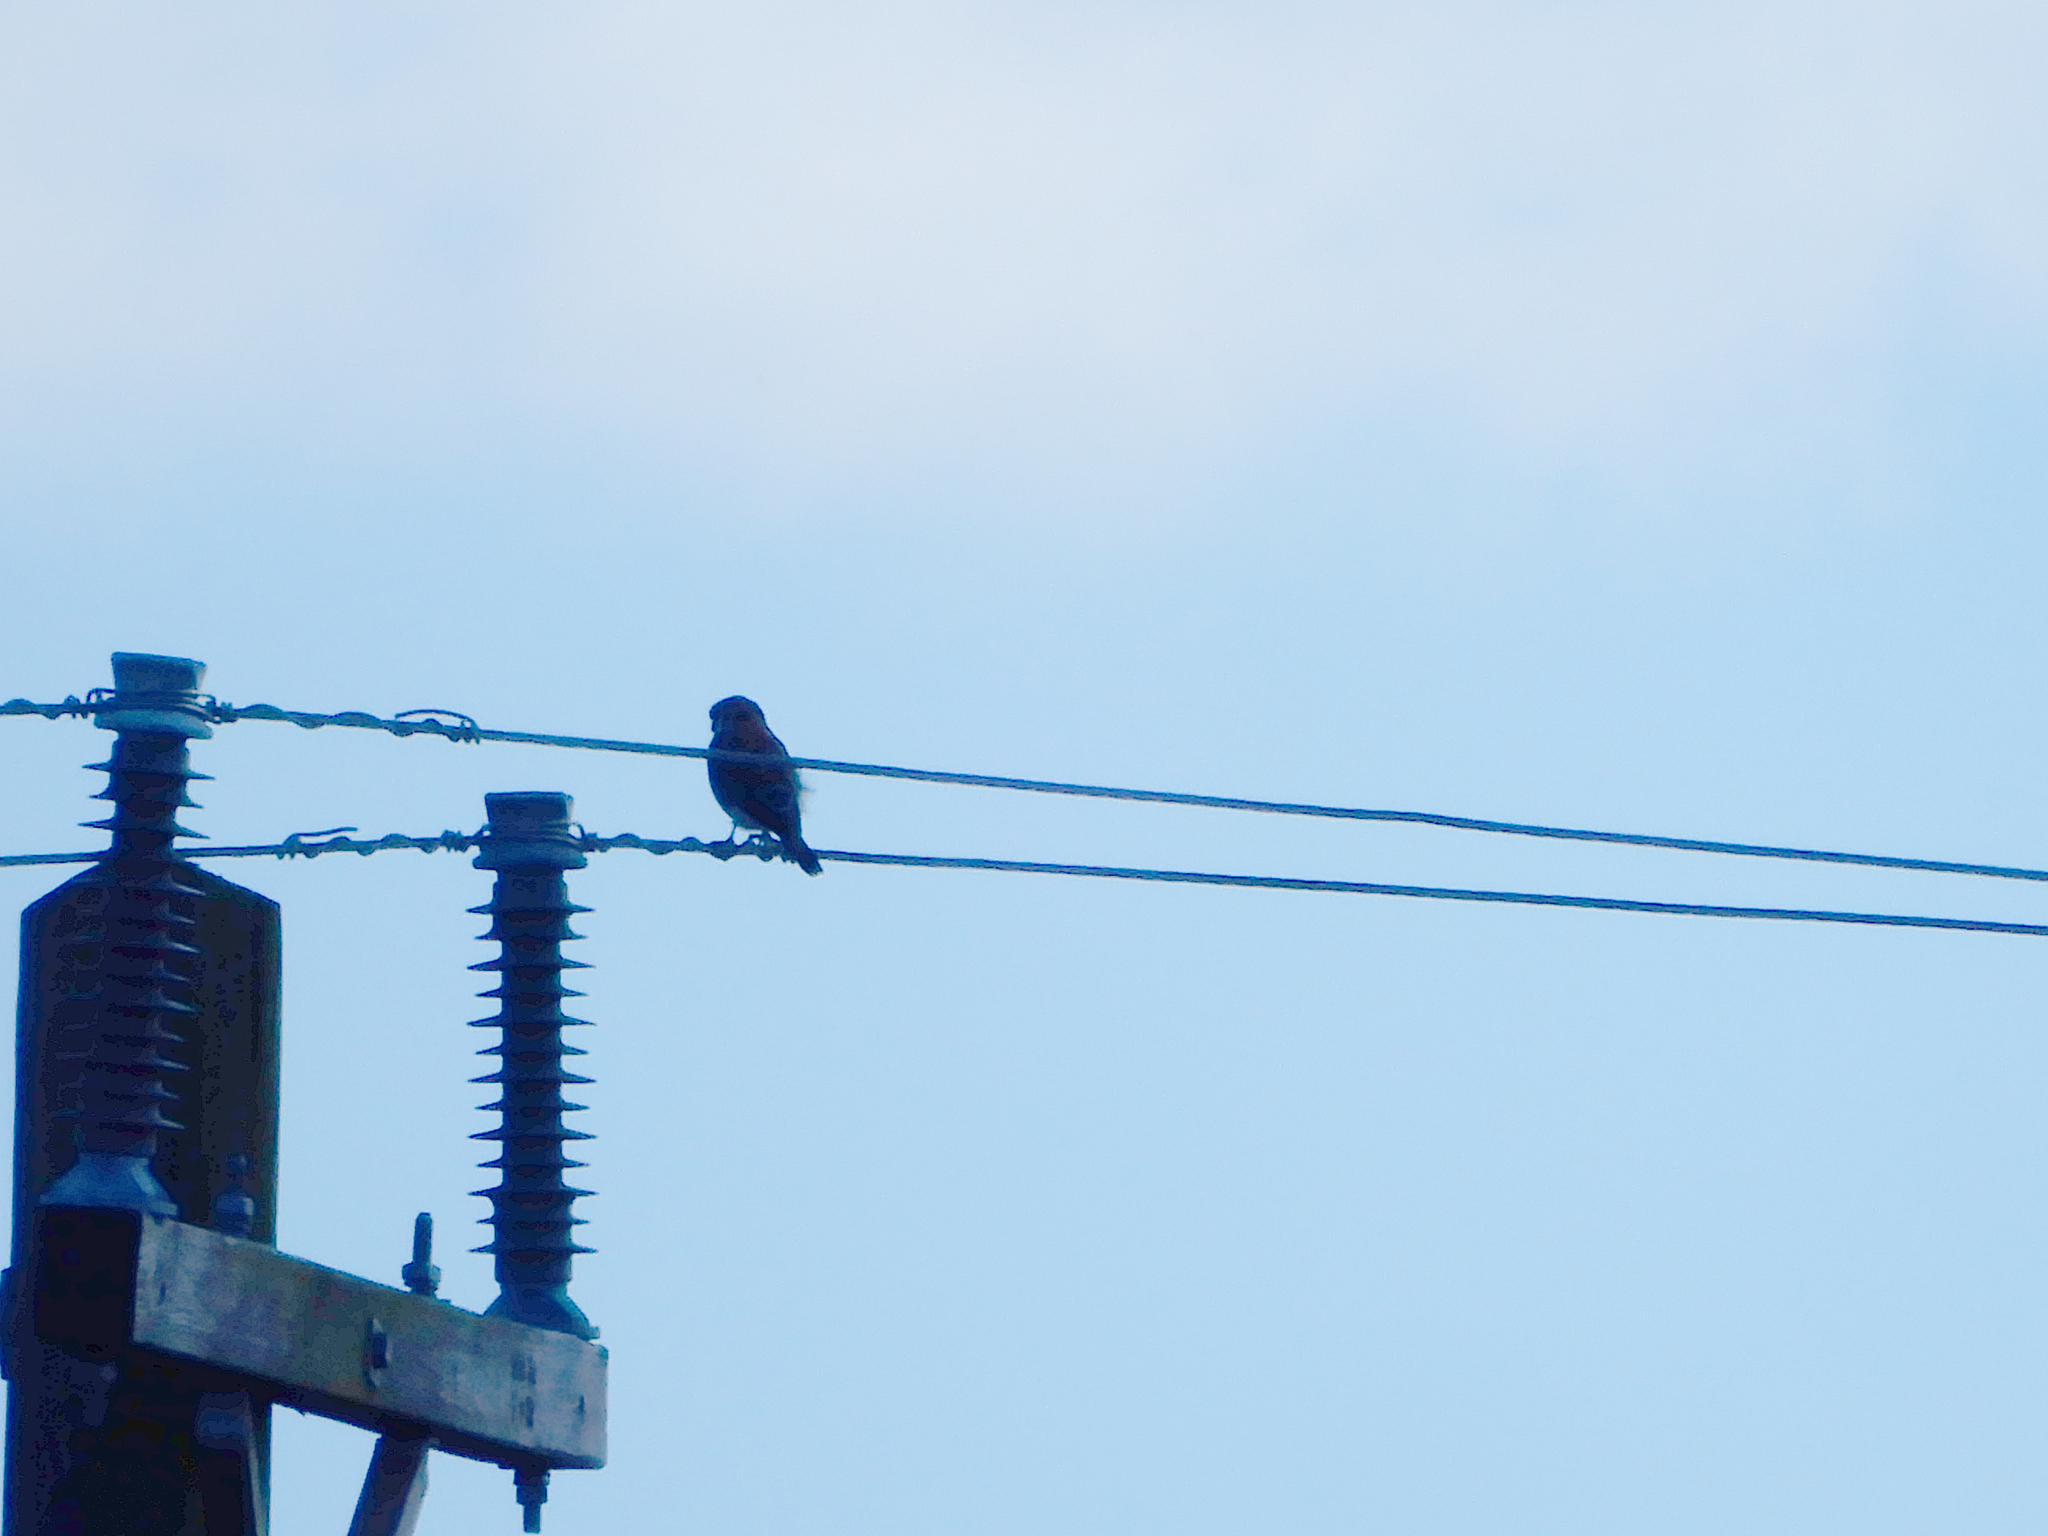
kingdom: Animalia
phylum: Chordata
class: Aves
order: Falconiformes
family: Falconidae
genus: Falco
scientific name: Falco sparverius
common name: American kestrel
